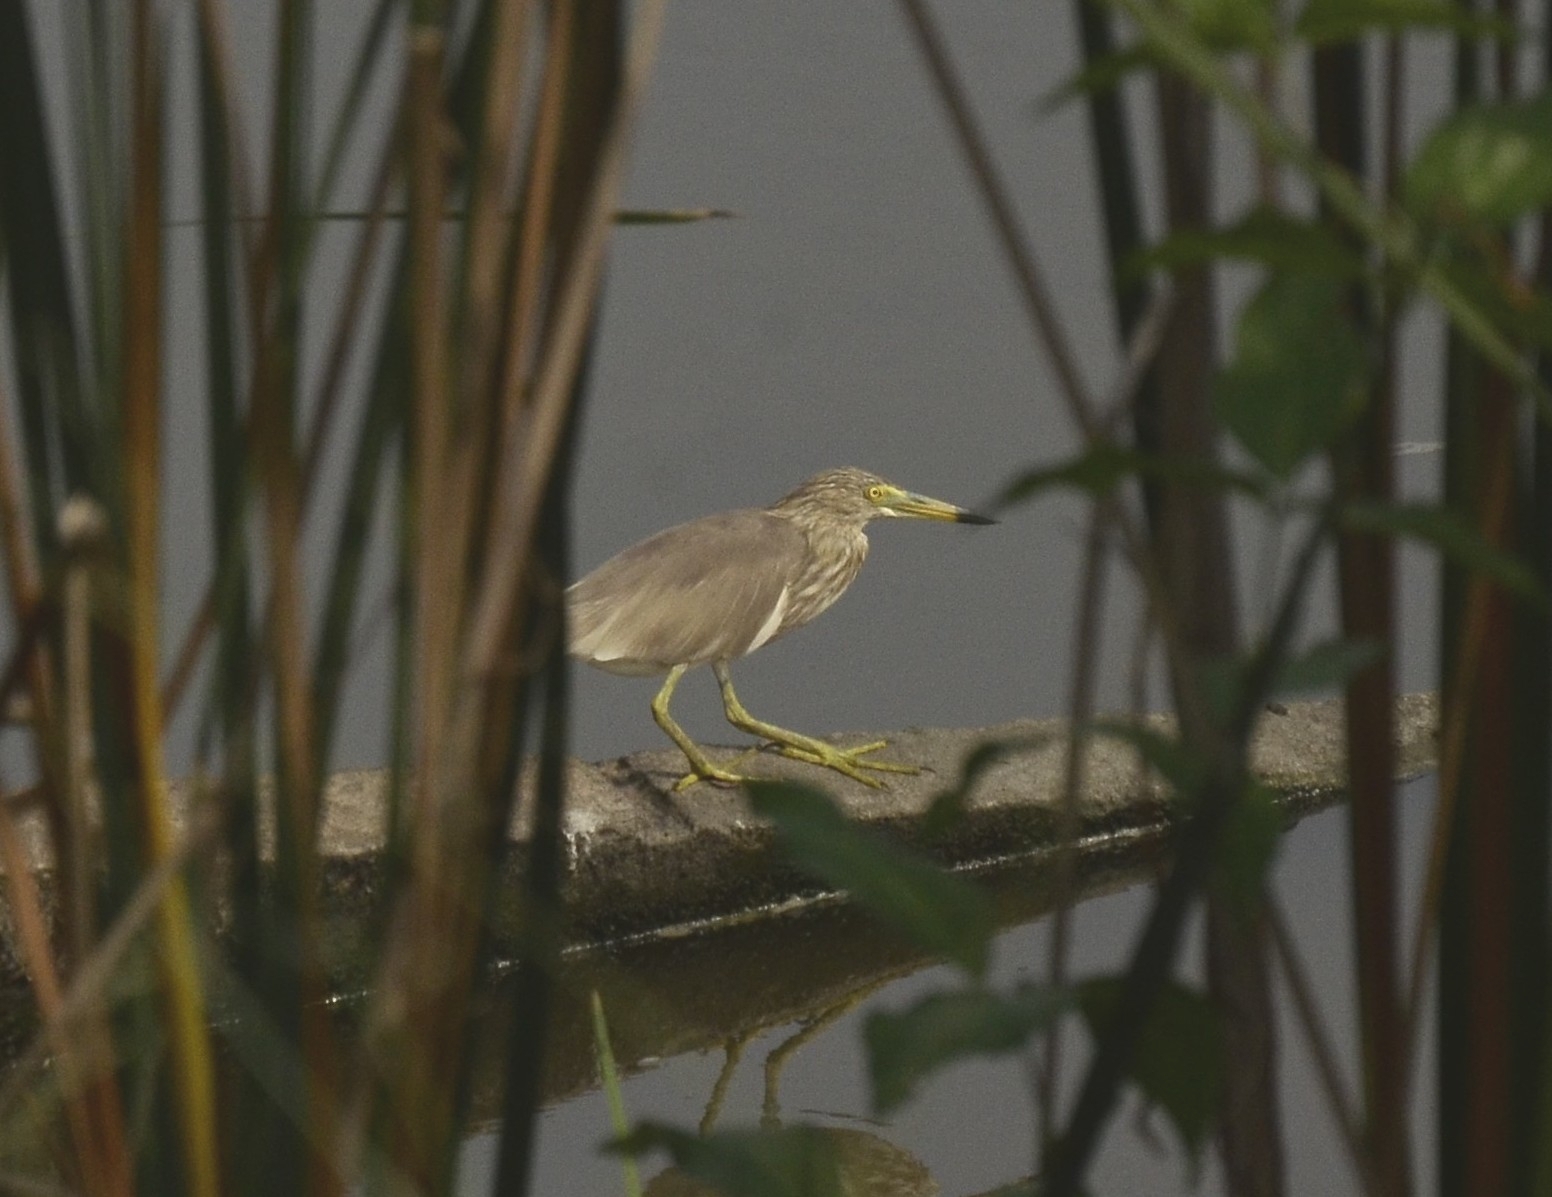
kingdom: Animalia
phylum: Chordata
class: Aves
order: Pelecaniformes
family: Ardeidae
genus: Ardeola
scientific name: Ardeola grayii
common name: Indian pond heron
